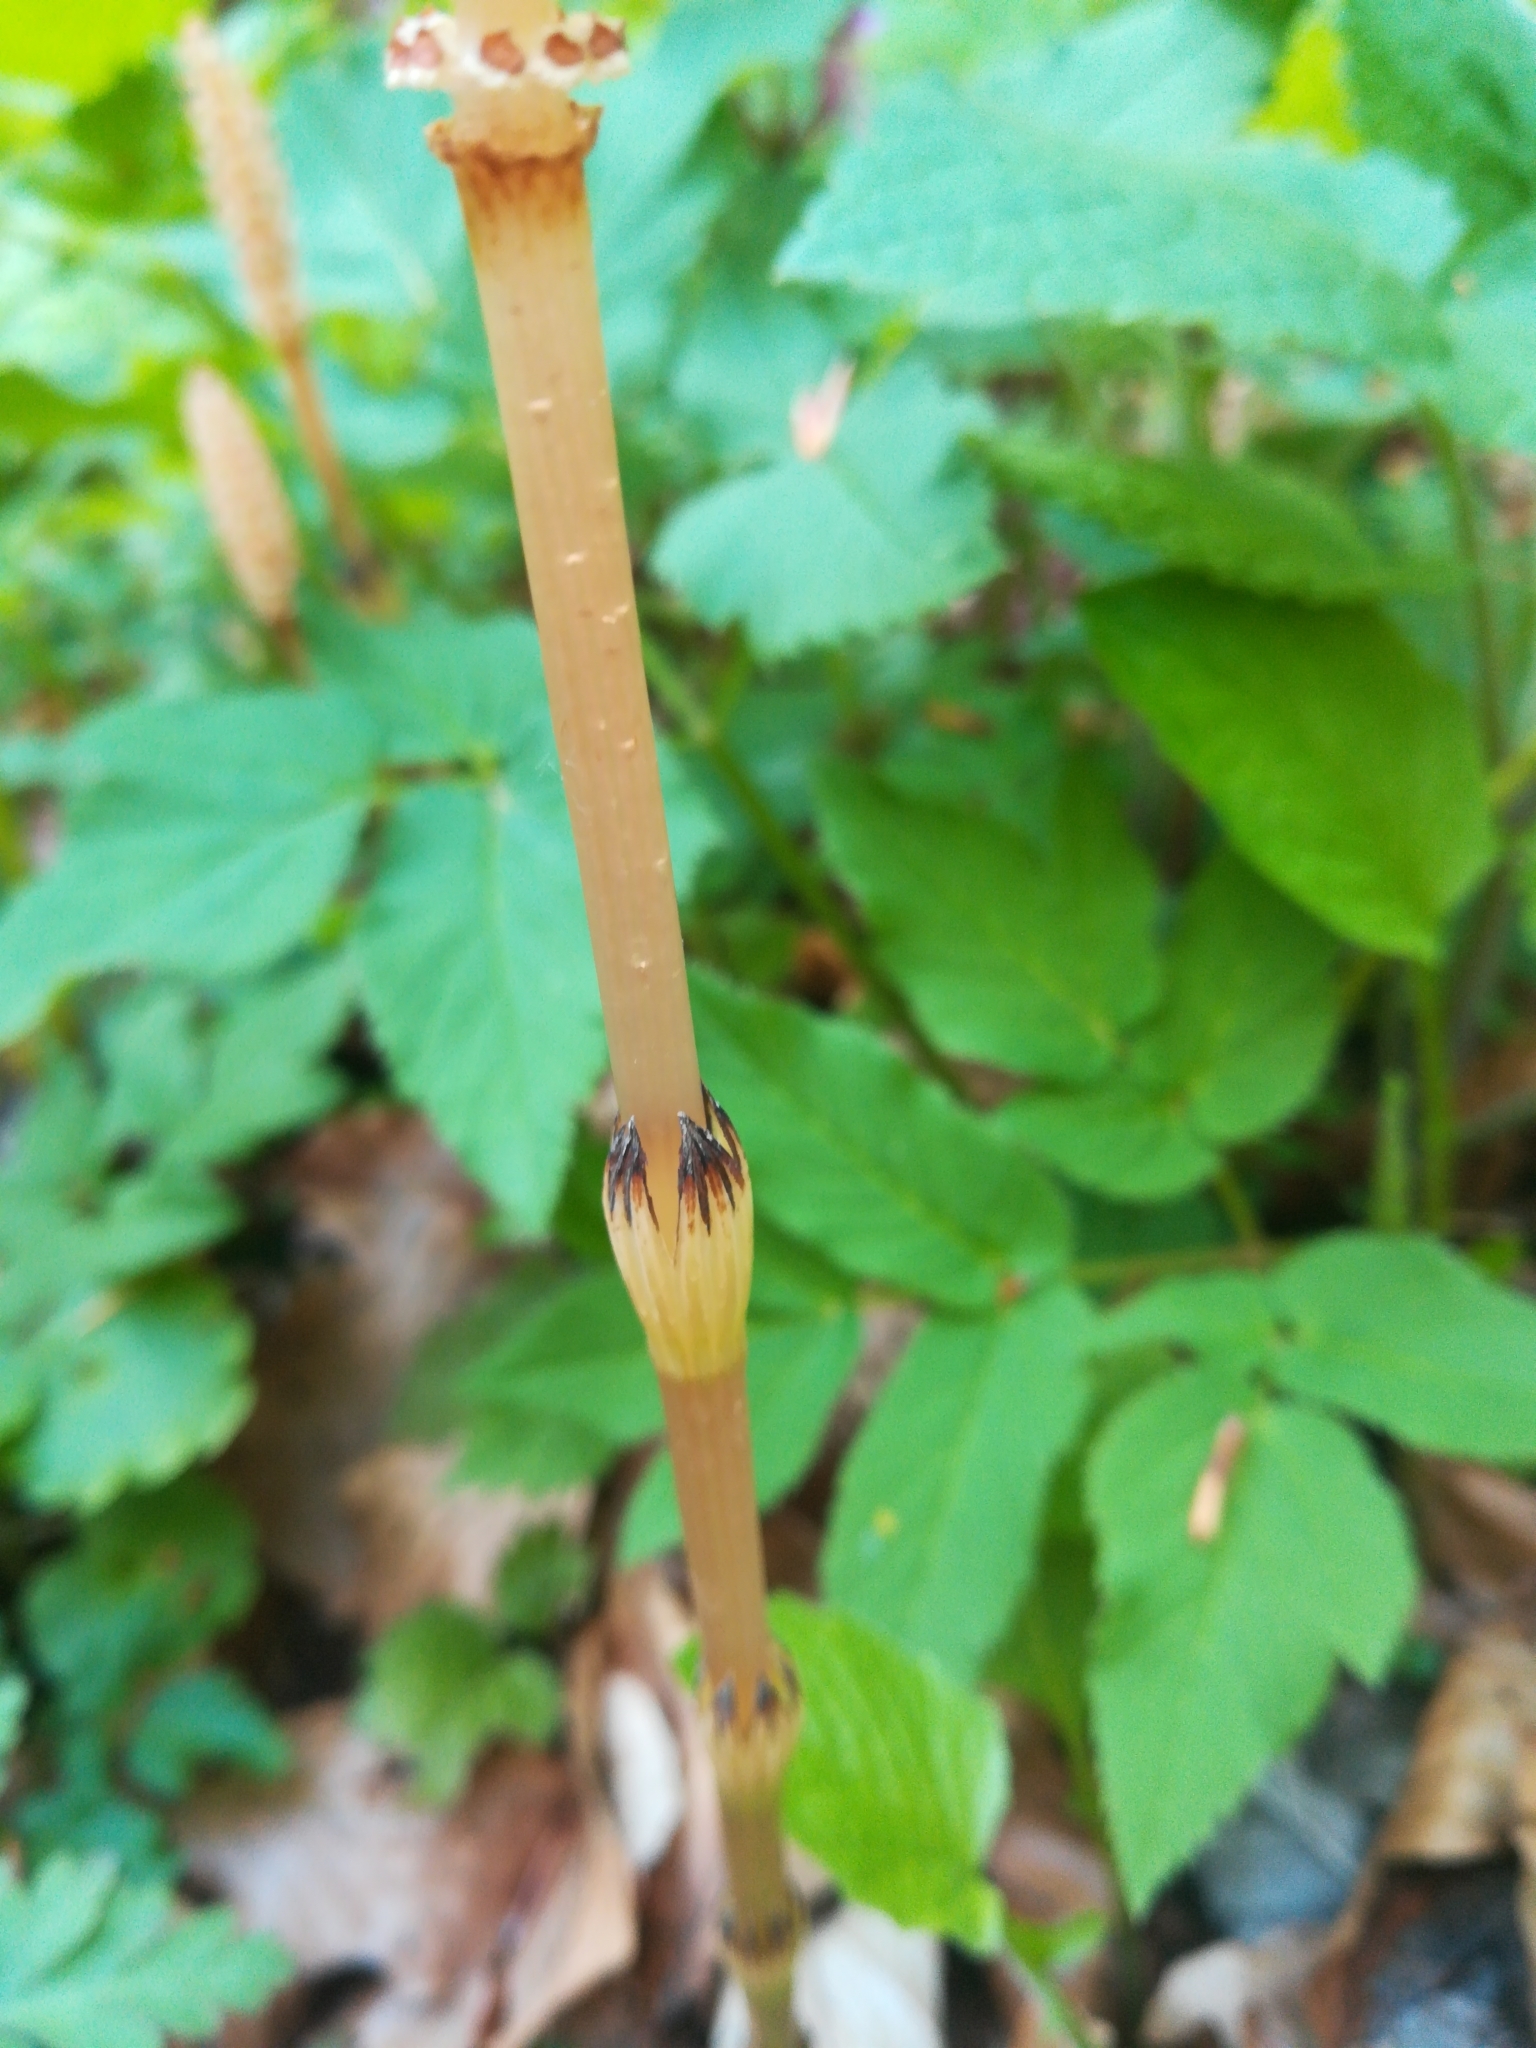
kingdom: Plantae
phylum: Tracheophyta
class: Polypodiopsida
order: Equisetales
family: Equisetaceae
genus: Equisetum
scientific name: Equisetum arvense
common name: Field horsetail
